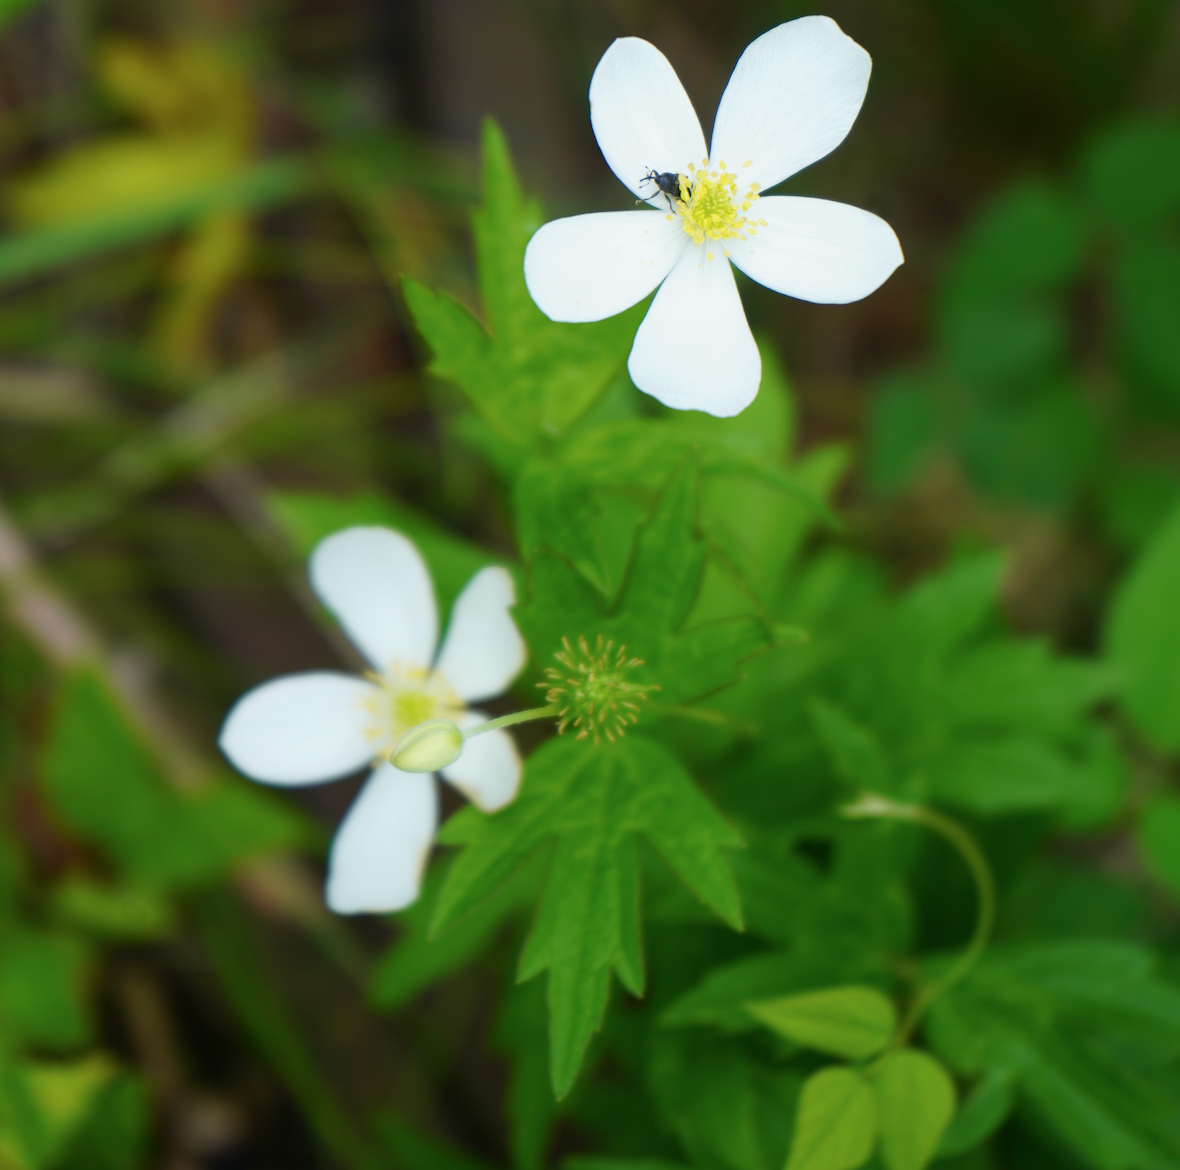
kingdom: Plantae
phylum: Tracheophyta
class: Magnoliopsida
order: Ranunculales
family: Ranunculaceae
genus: Anemonastrum
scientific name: Anemonastrum canadense
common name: Canada anemone
